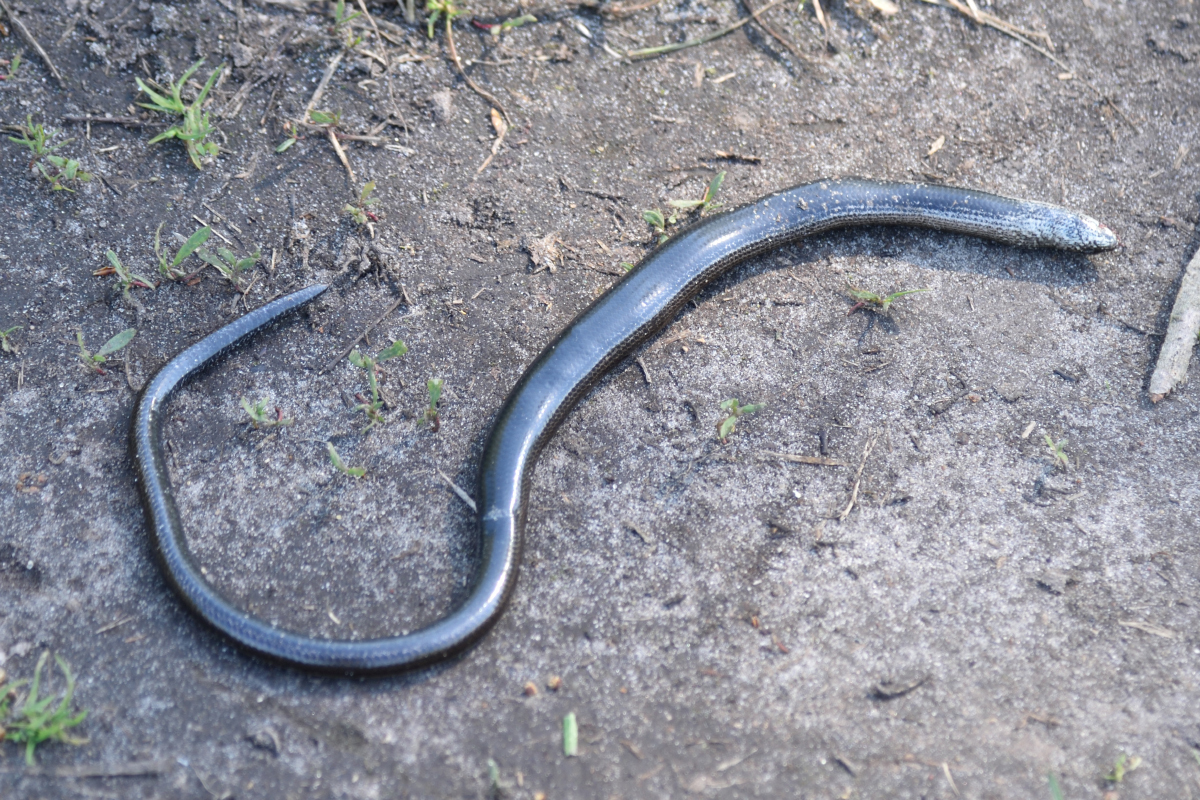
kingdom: Animalia
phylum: Chordata
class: Squamata
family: Anguidae
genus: Anguis
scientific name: Anguis colchica
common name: Slow worm
